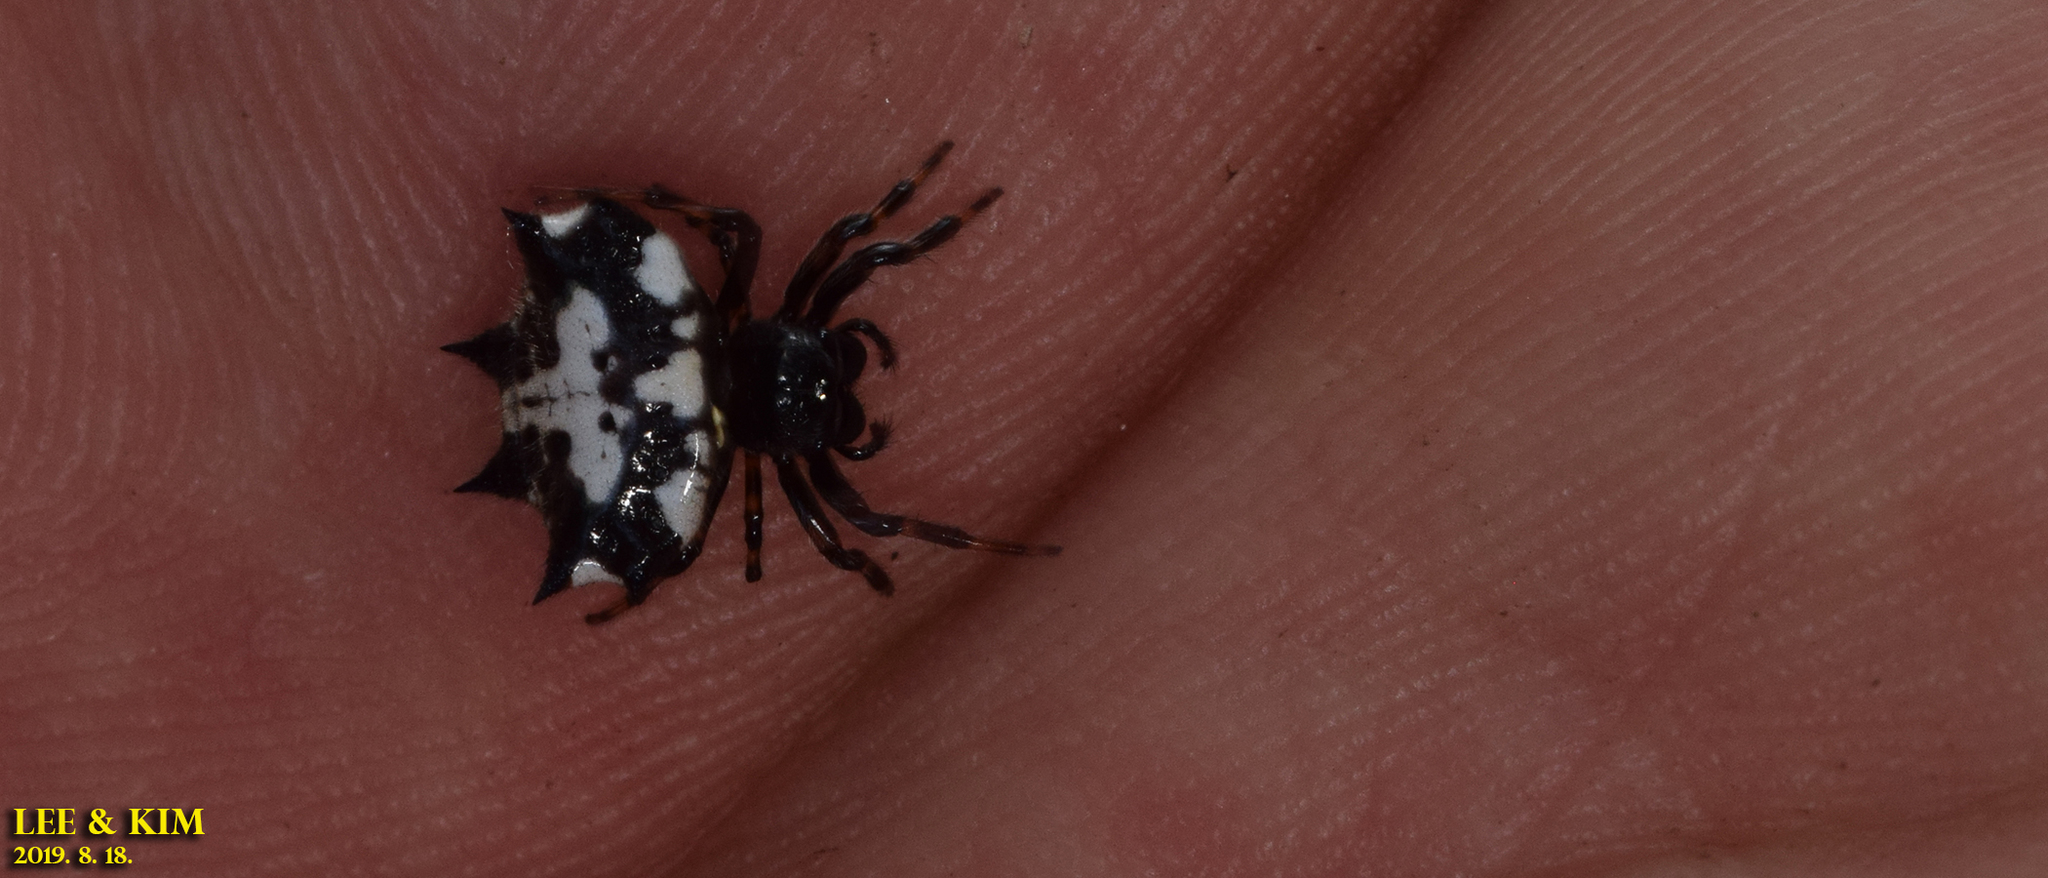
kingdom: Animalia
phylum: Arthropoda
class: Arachnida
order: Araneae
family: Araneidae
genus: Gasteracantha
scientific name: Gasteracantha kuhli
